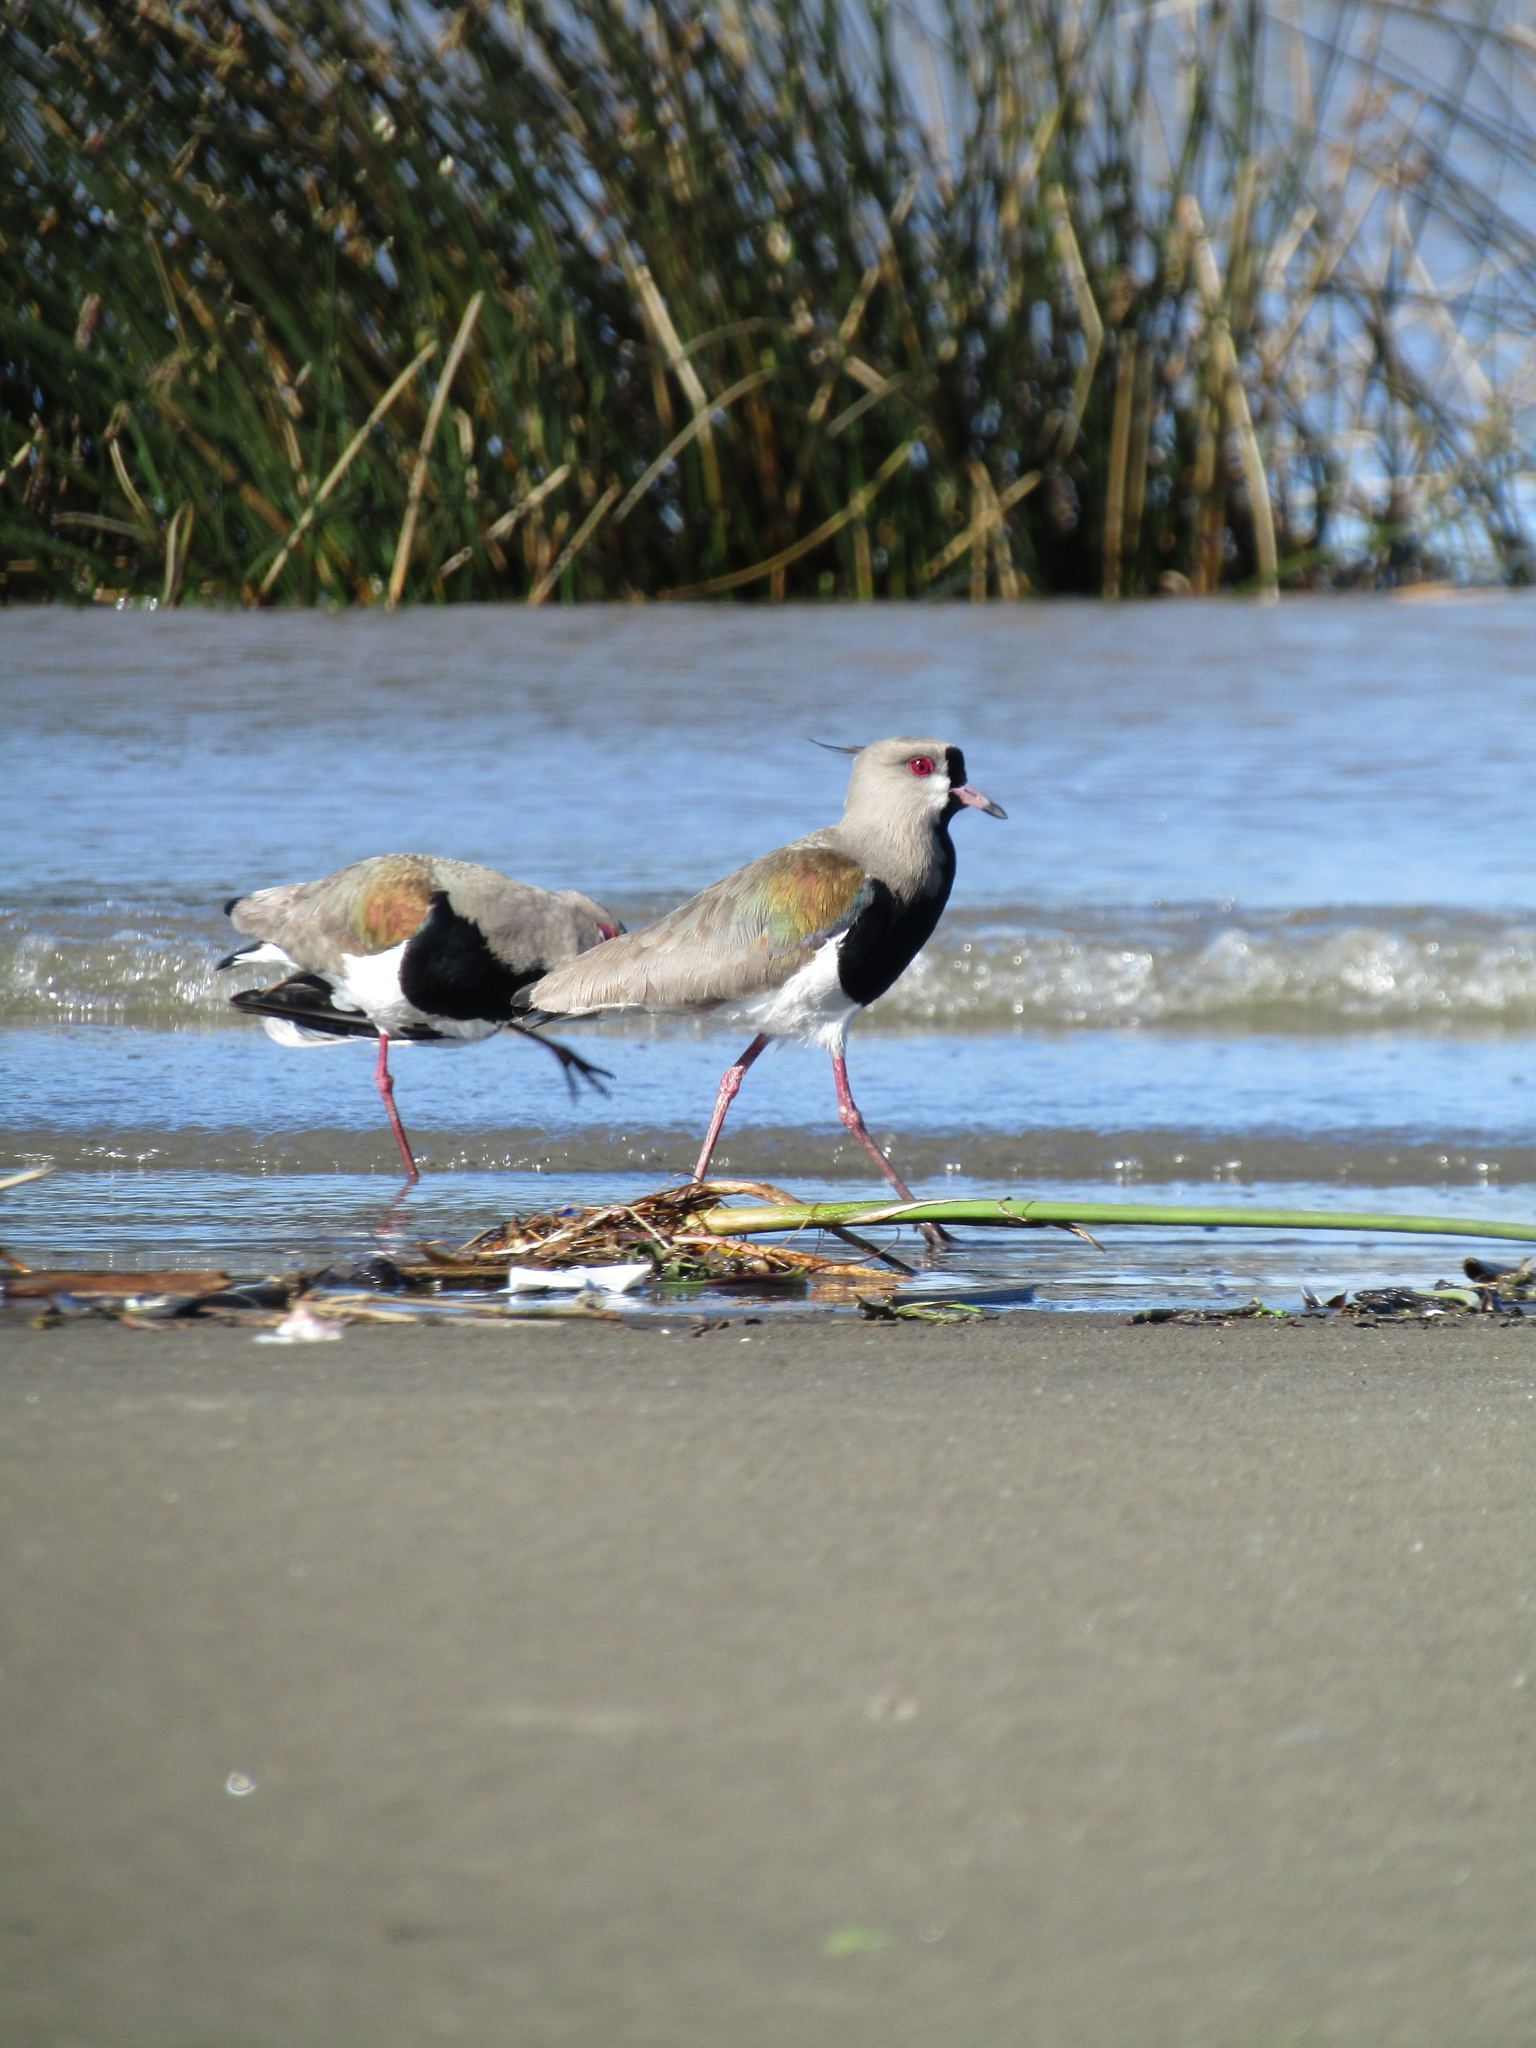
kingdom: Animalia
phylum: Chordata
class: Aves
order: Charadriiformes
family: Charadriidae
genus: Vanellus
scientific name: Vanellus chilensis
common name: Southern lapwing
